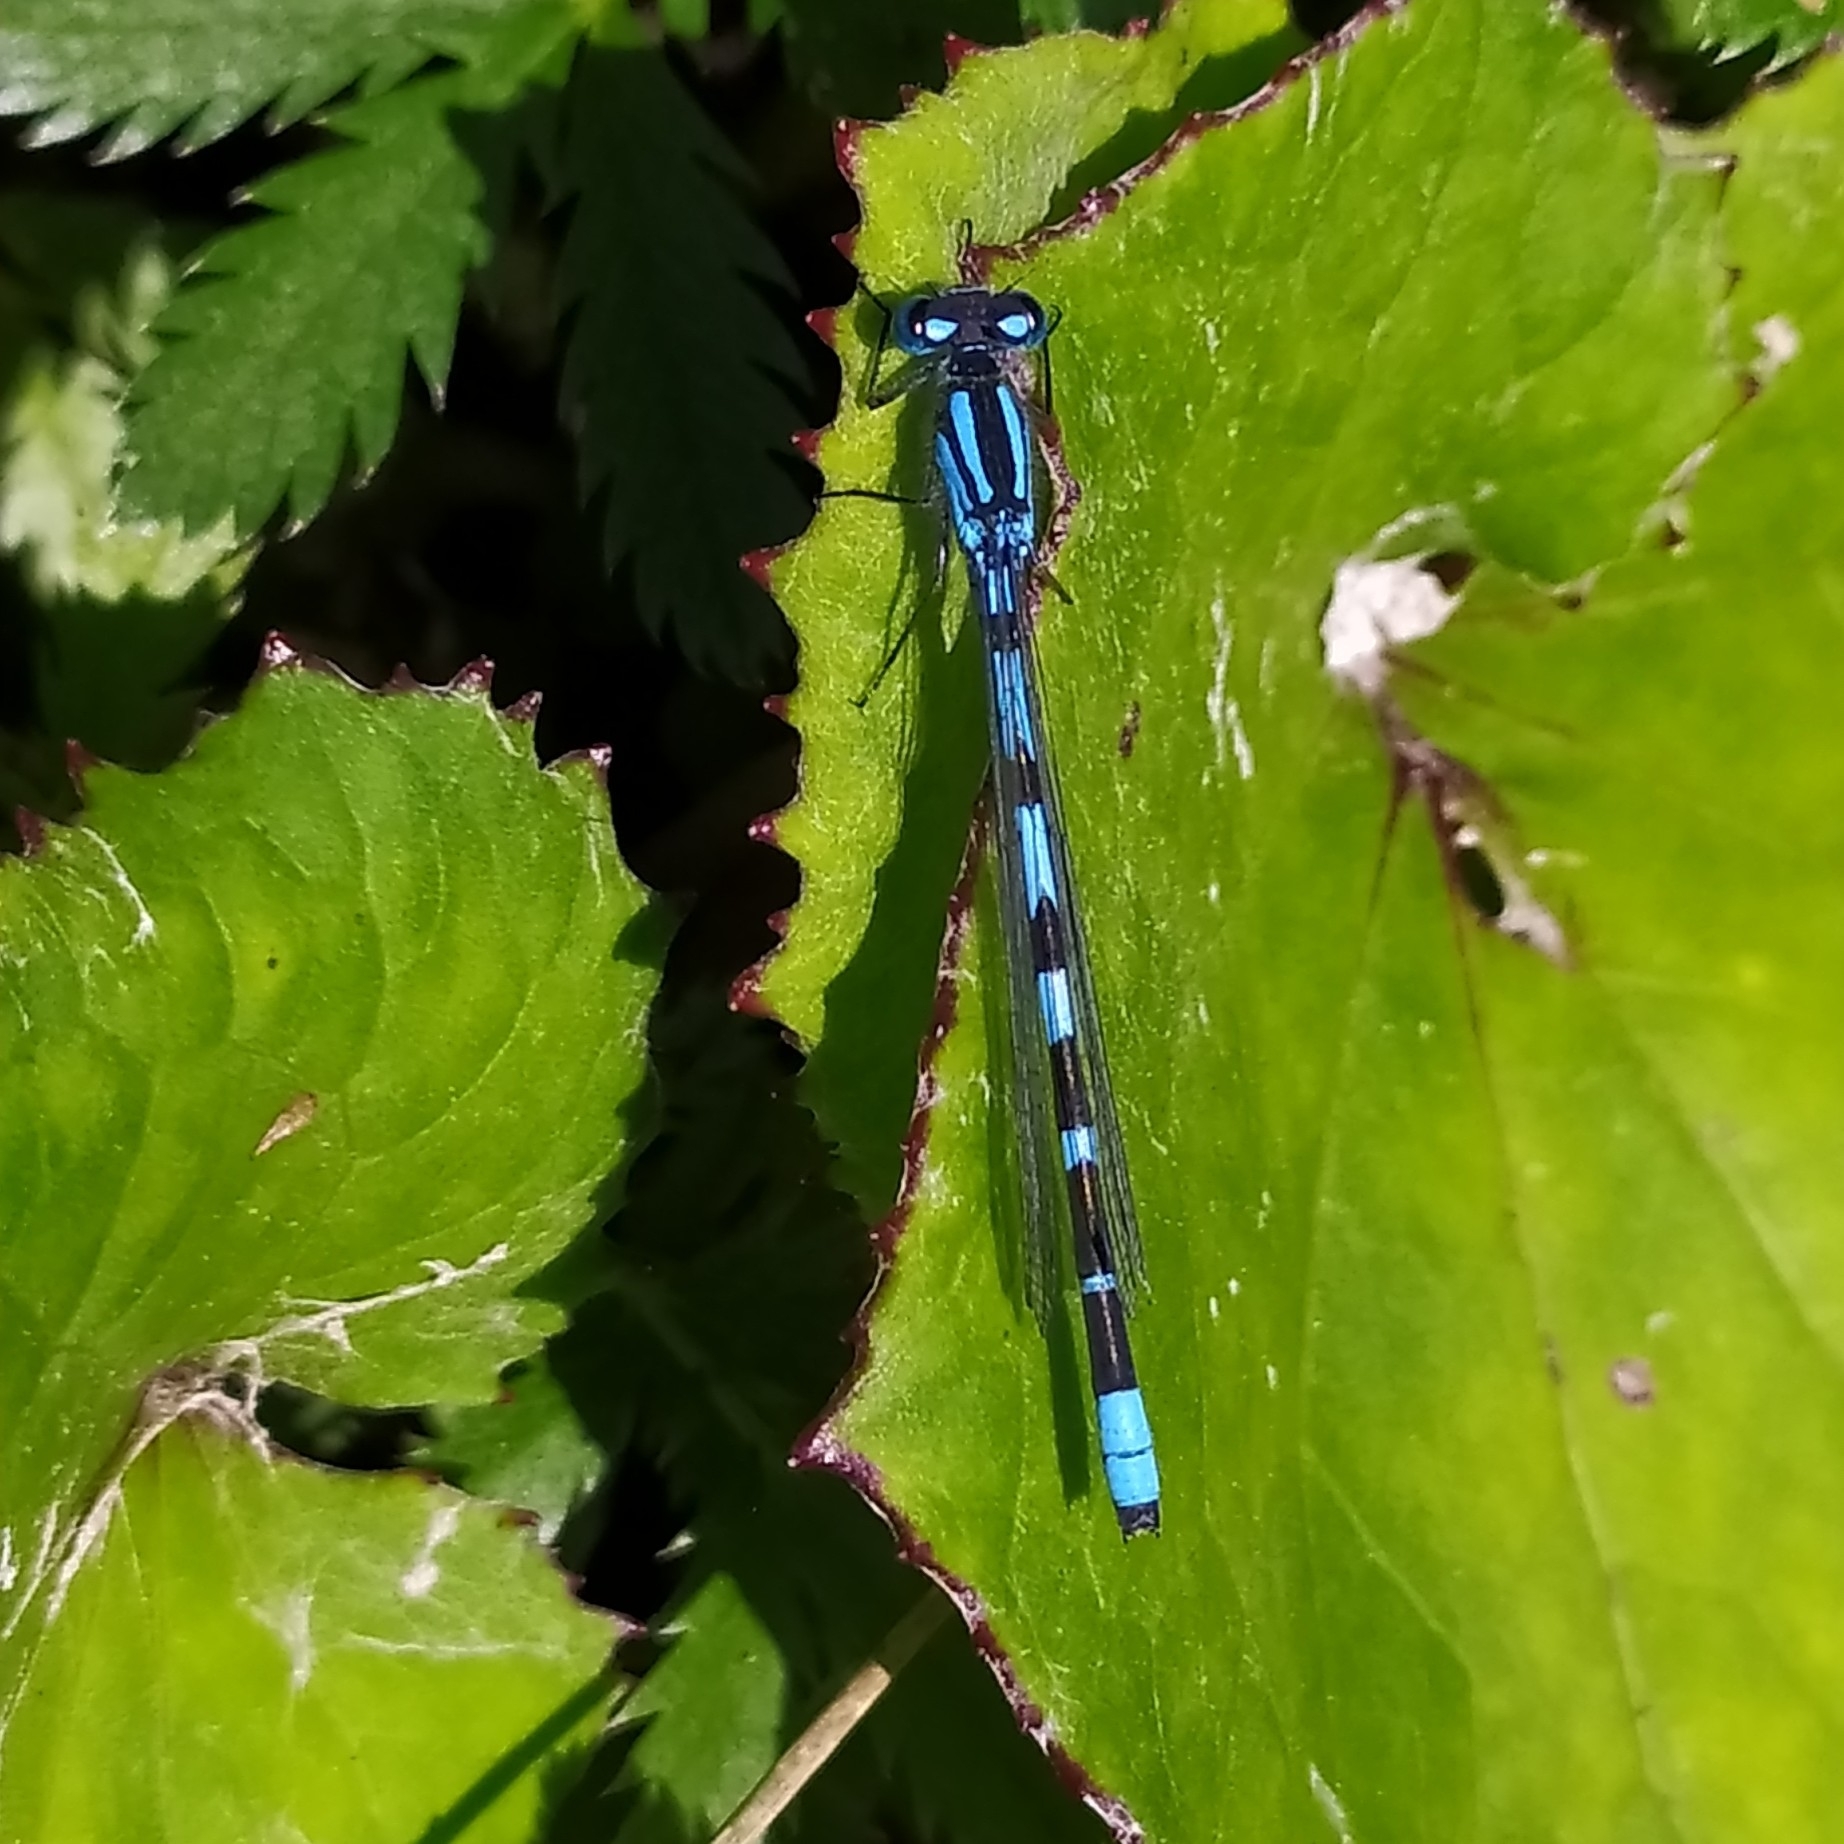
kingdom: Animalia
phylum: Arthropoda
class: Insecta
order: Odonata
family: Coenagrionidae
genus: Enallagma
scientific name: Enallagma cyathigerum
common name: Common blue damselfly
